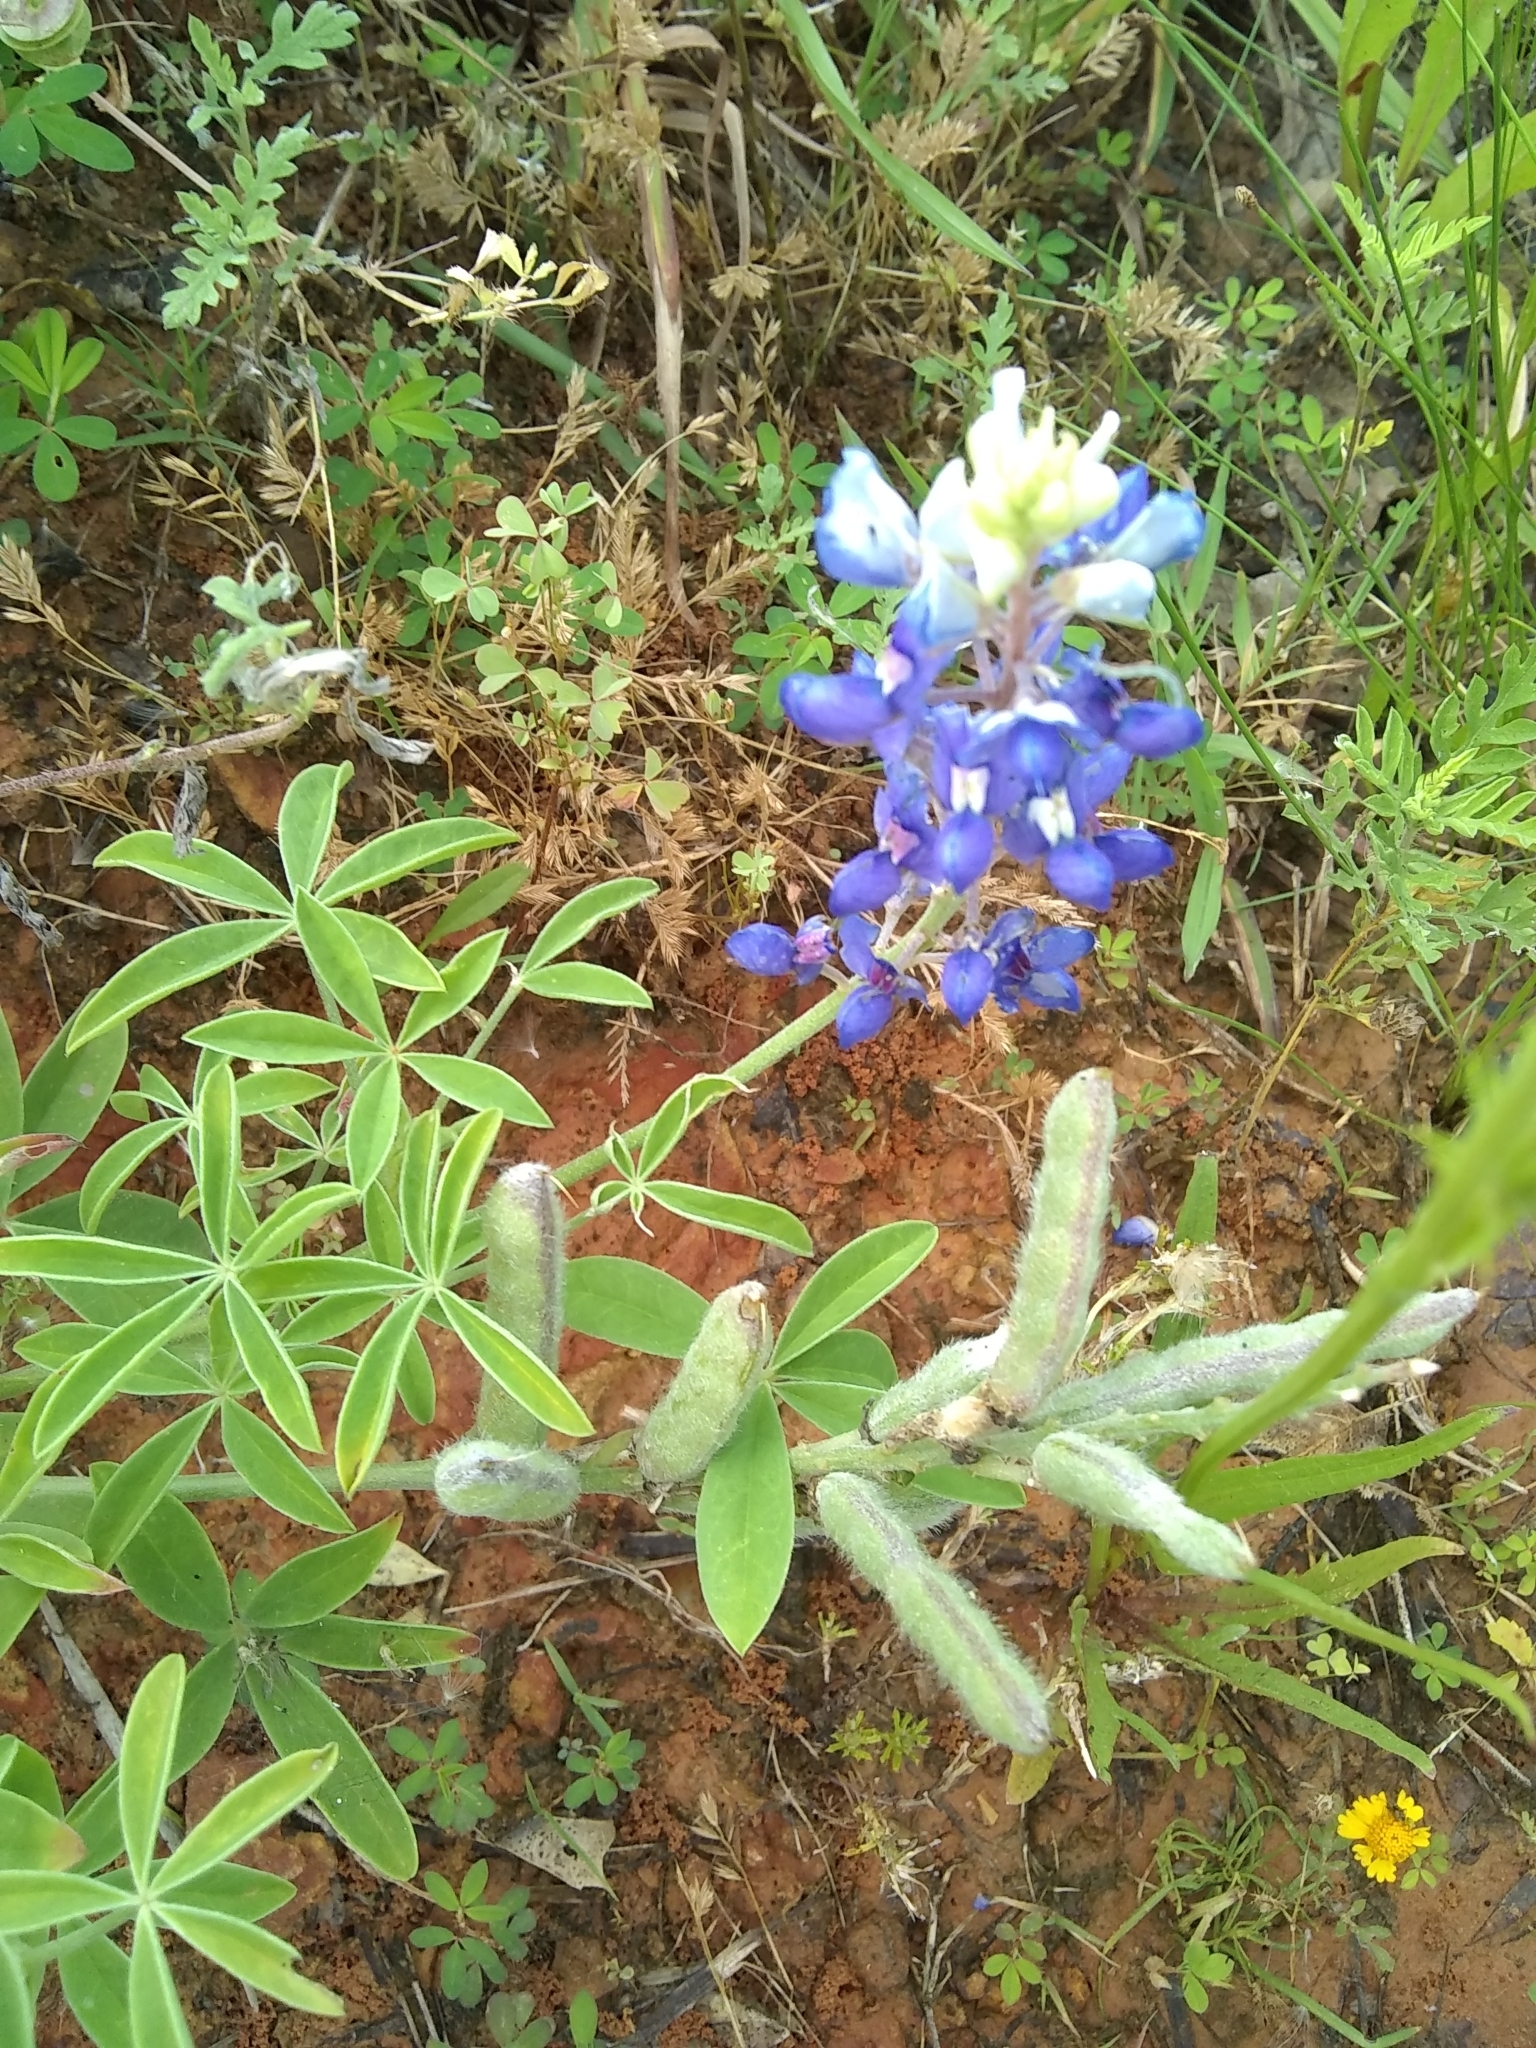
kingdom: Plantae
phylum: Tracheophyta
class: Magnoliopsida
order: Fabales
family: Fabaceae
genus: Lupinus
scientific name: Lupinus texensis
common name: Texas bluebonnet
